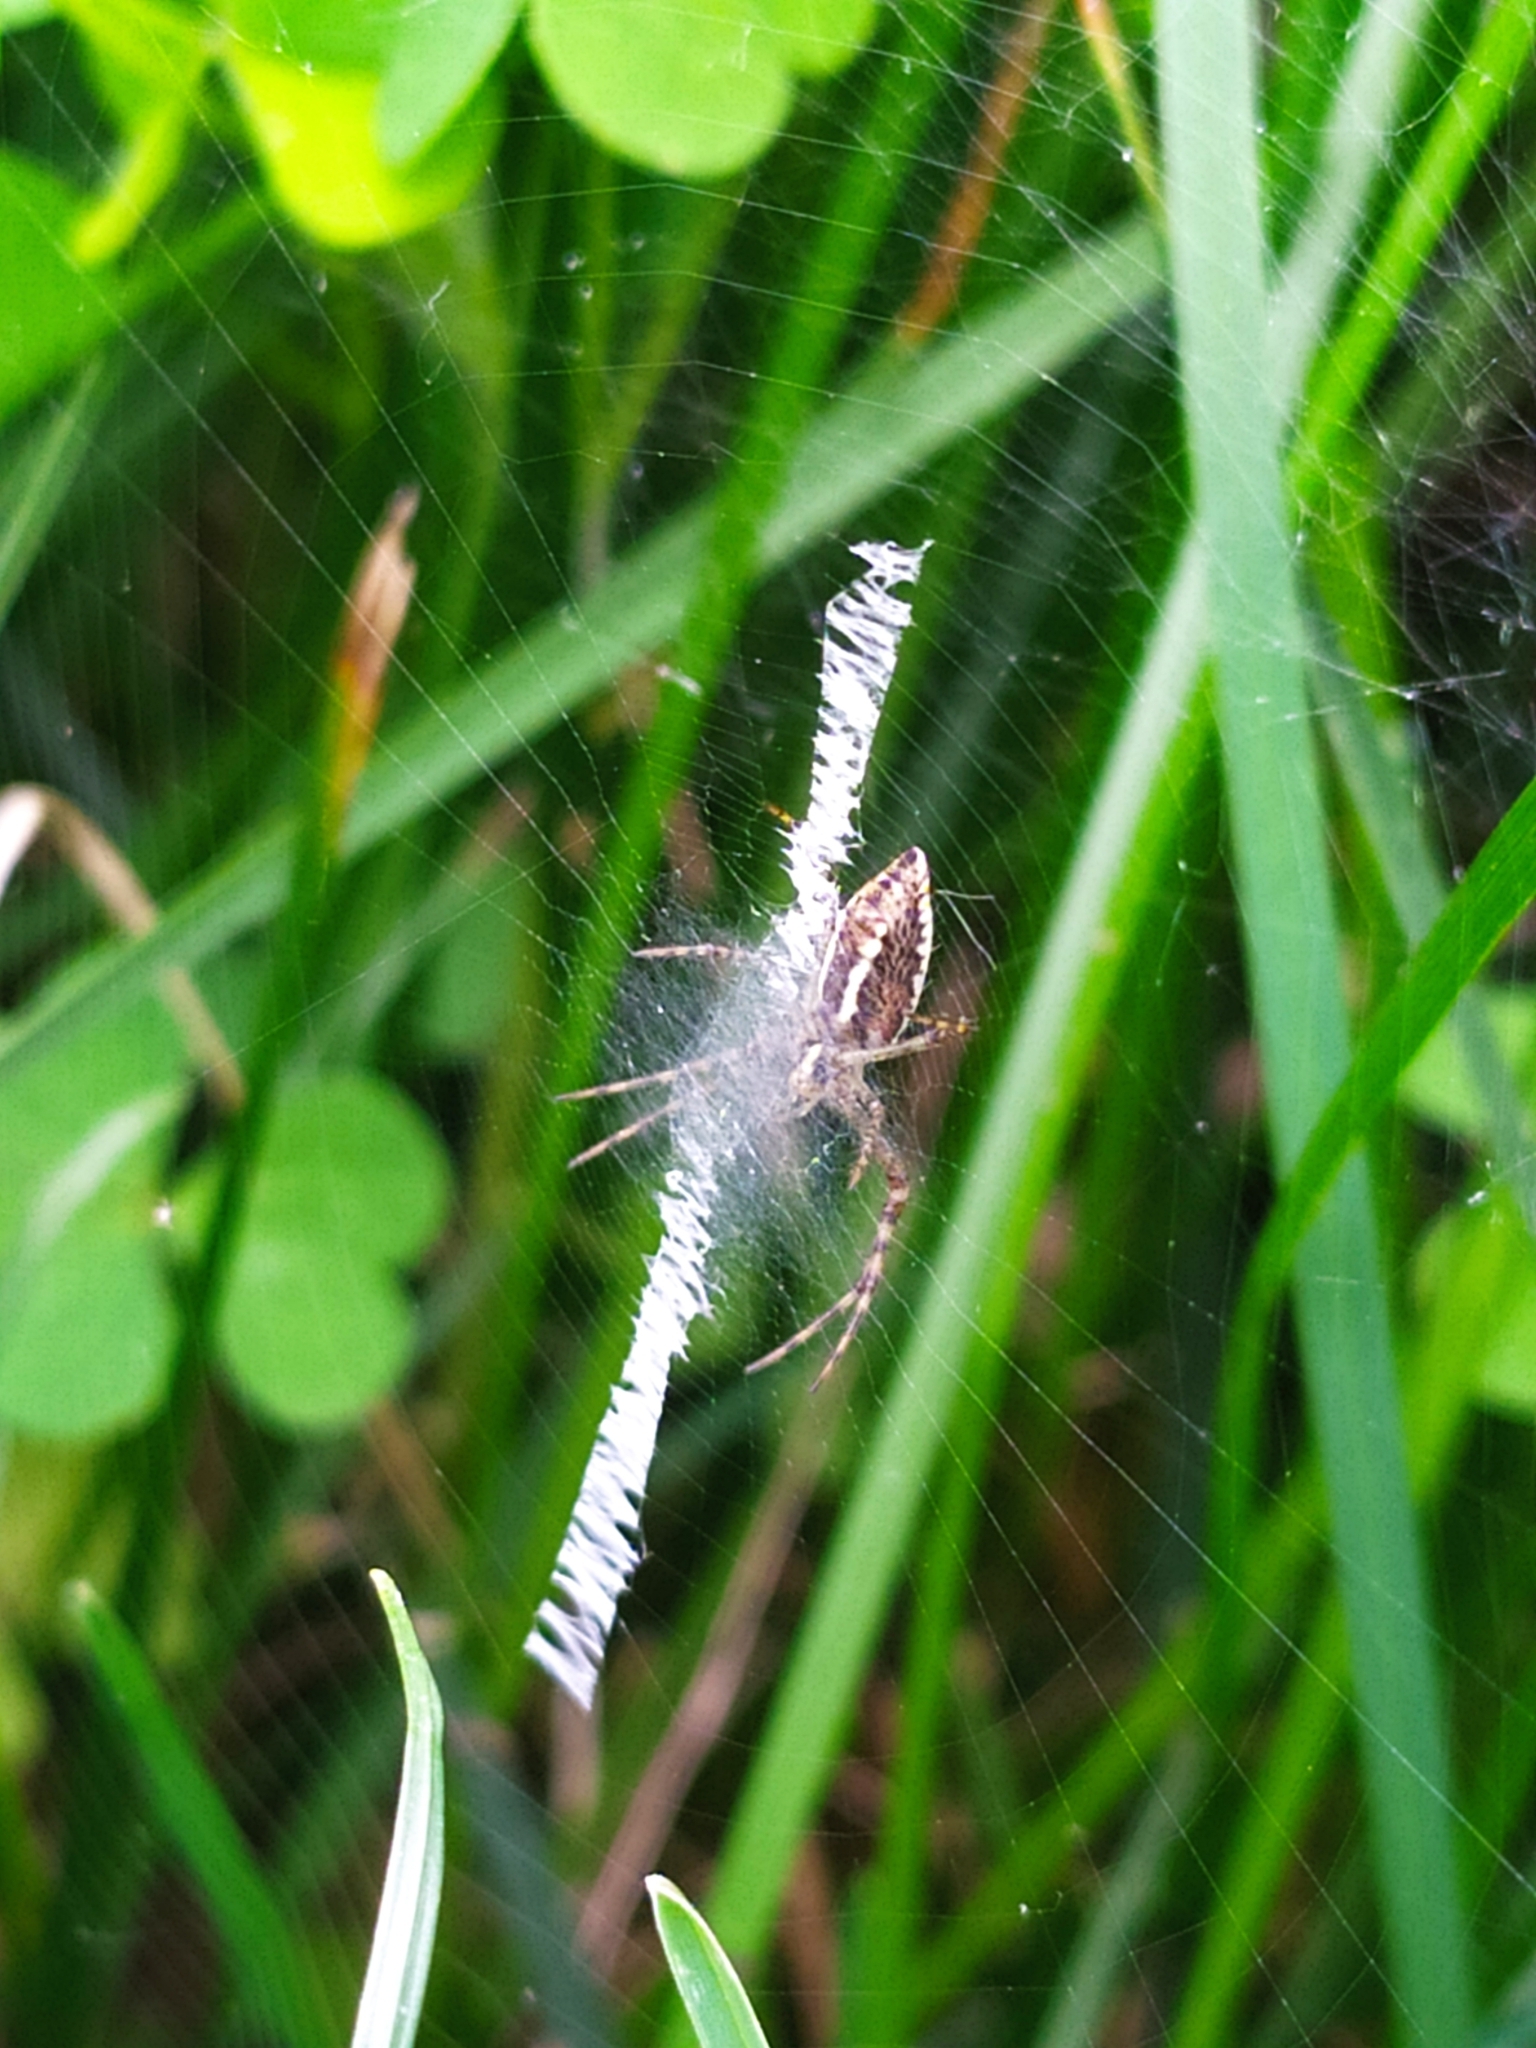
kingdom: Animalia
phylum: Arthropoda
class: Arachnida
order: Araneae
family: Araneidae
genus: Argiope
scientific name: Argiope bruennichi
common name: Wasp spider
